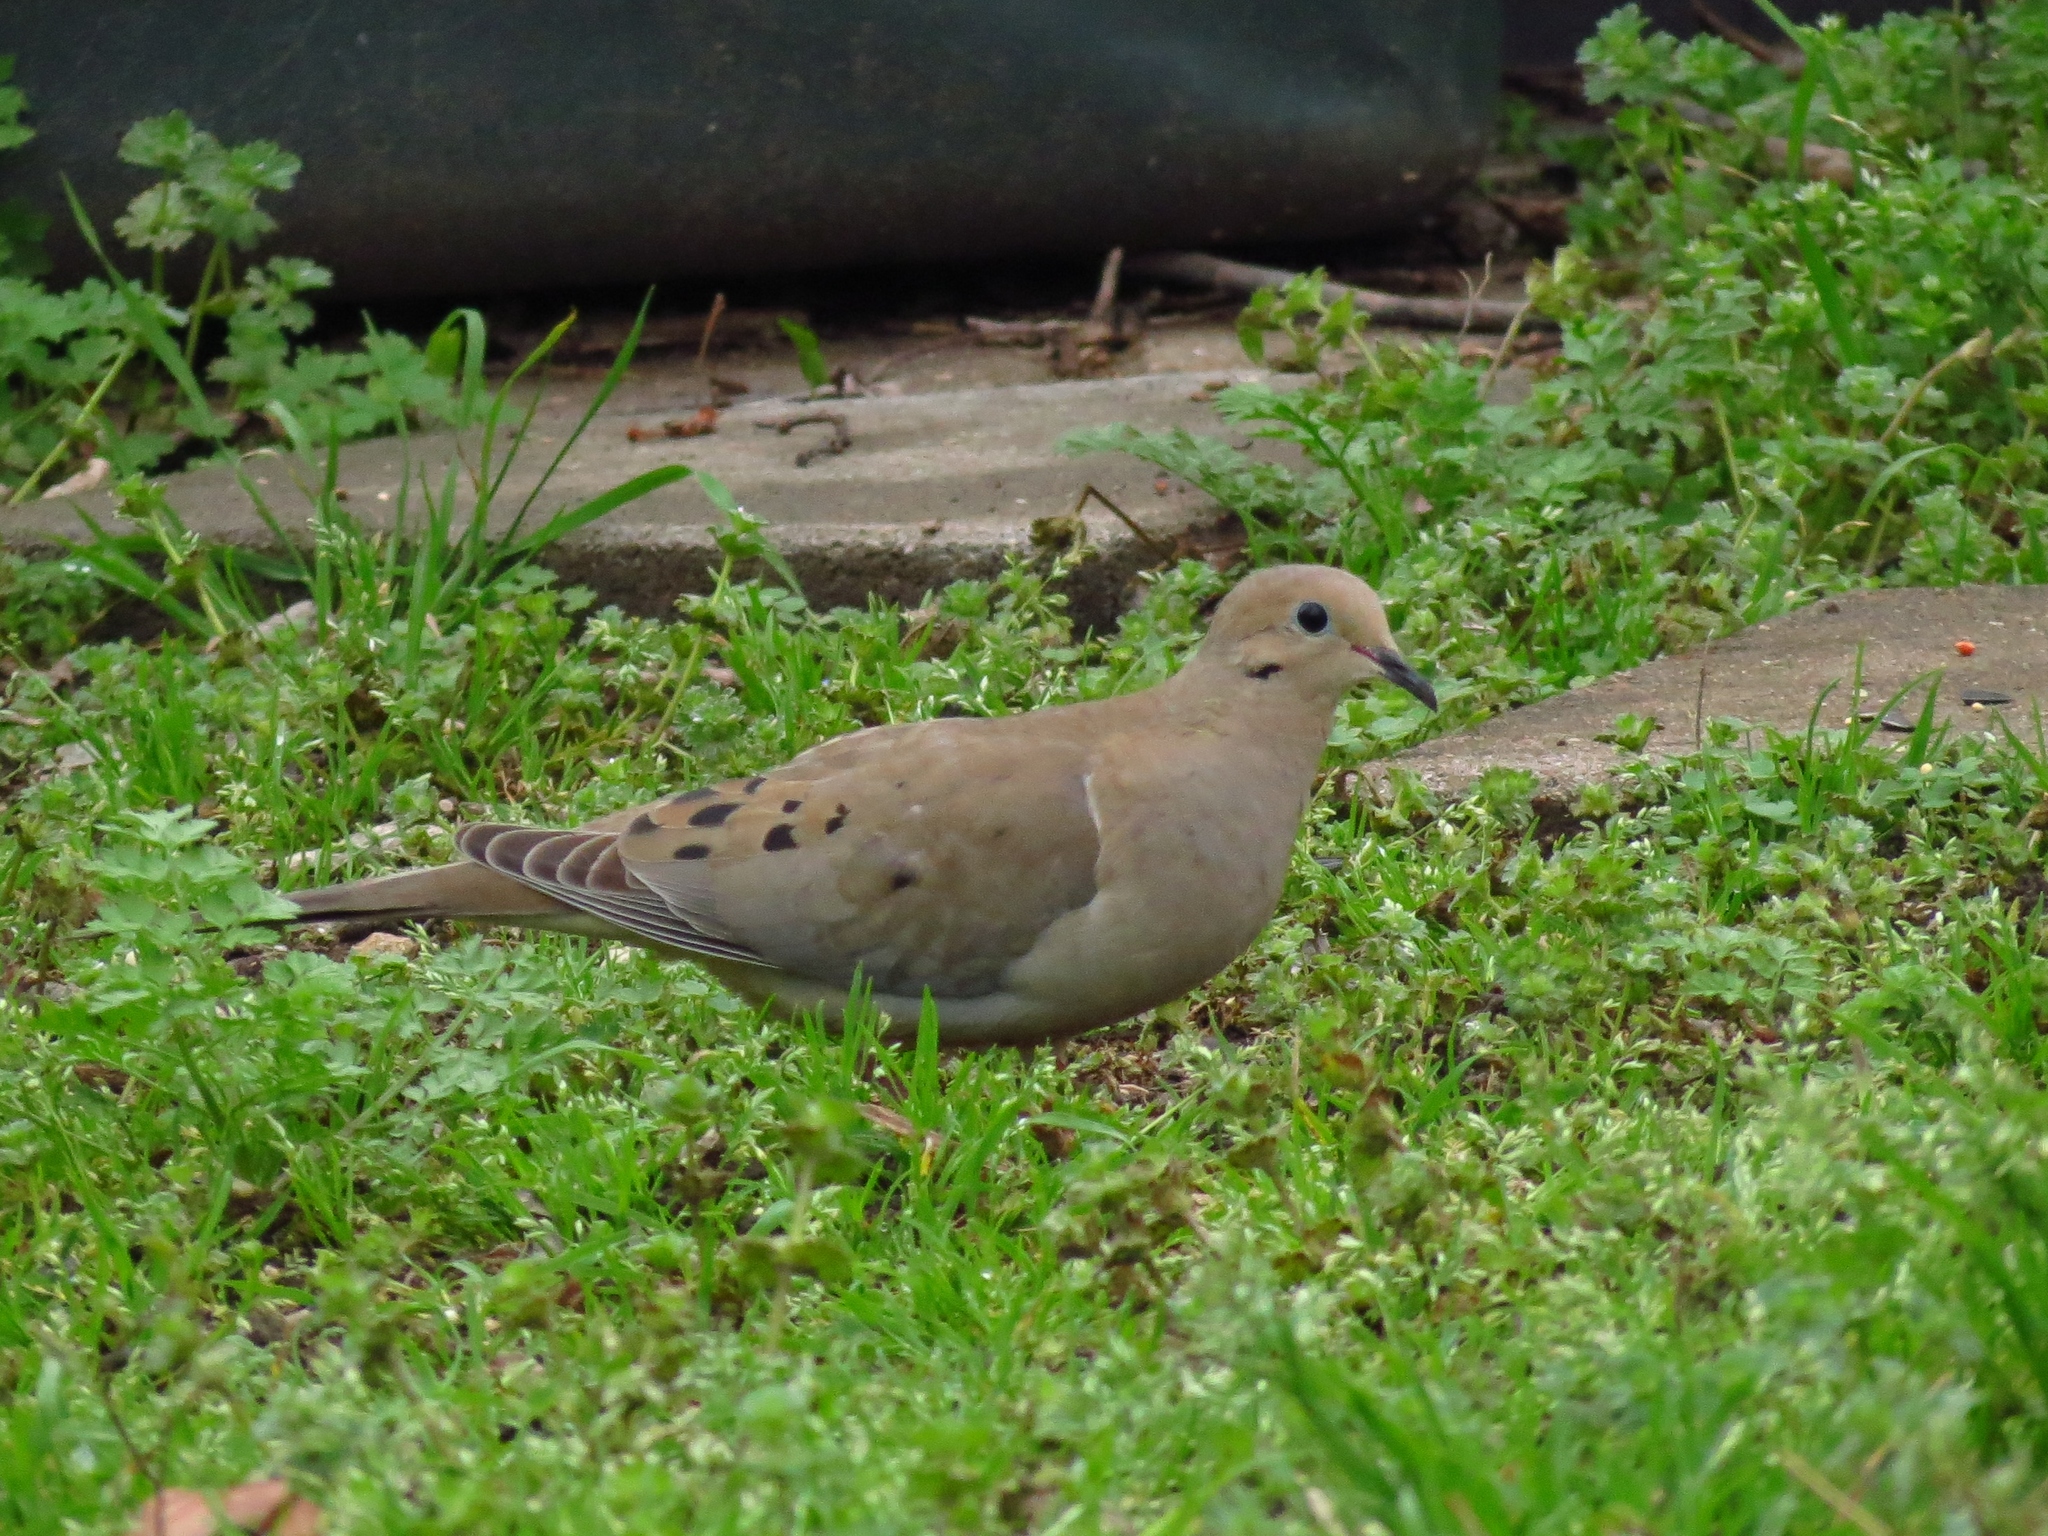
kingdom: Animalia
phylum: Chordata
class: Aves
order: Columbiformes
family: Columbidae
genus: Zenaida
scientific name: Zenaida macroura
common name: Mourning dove
